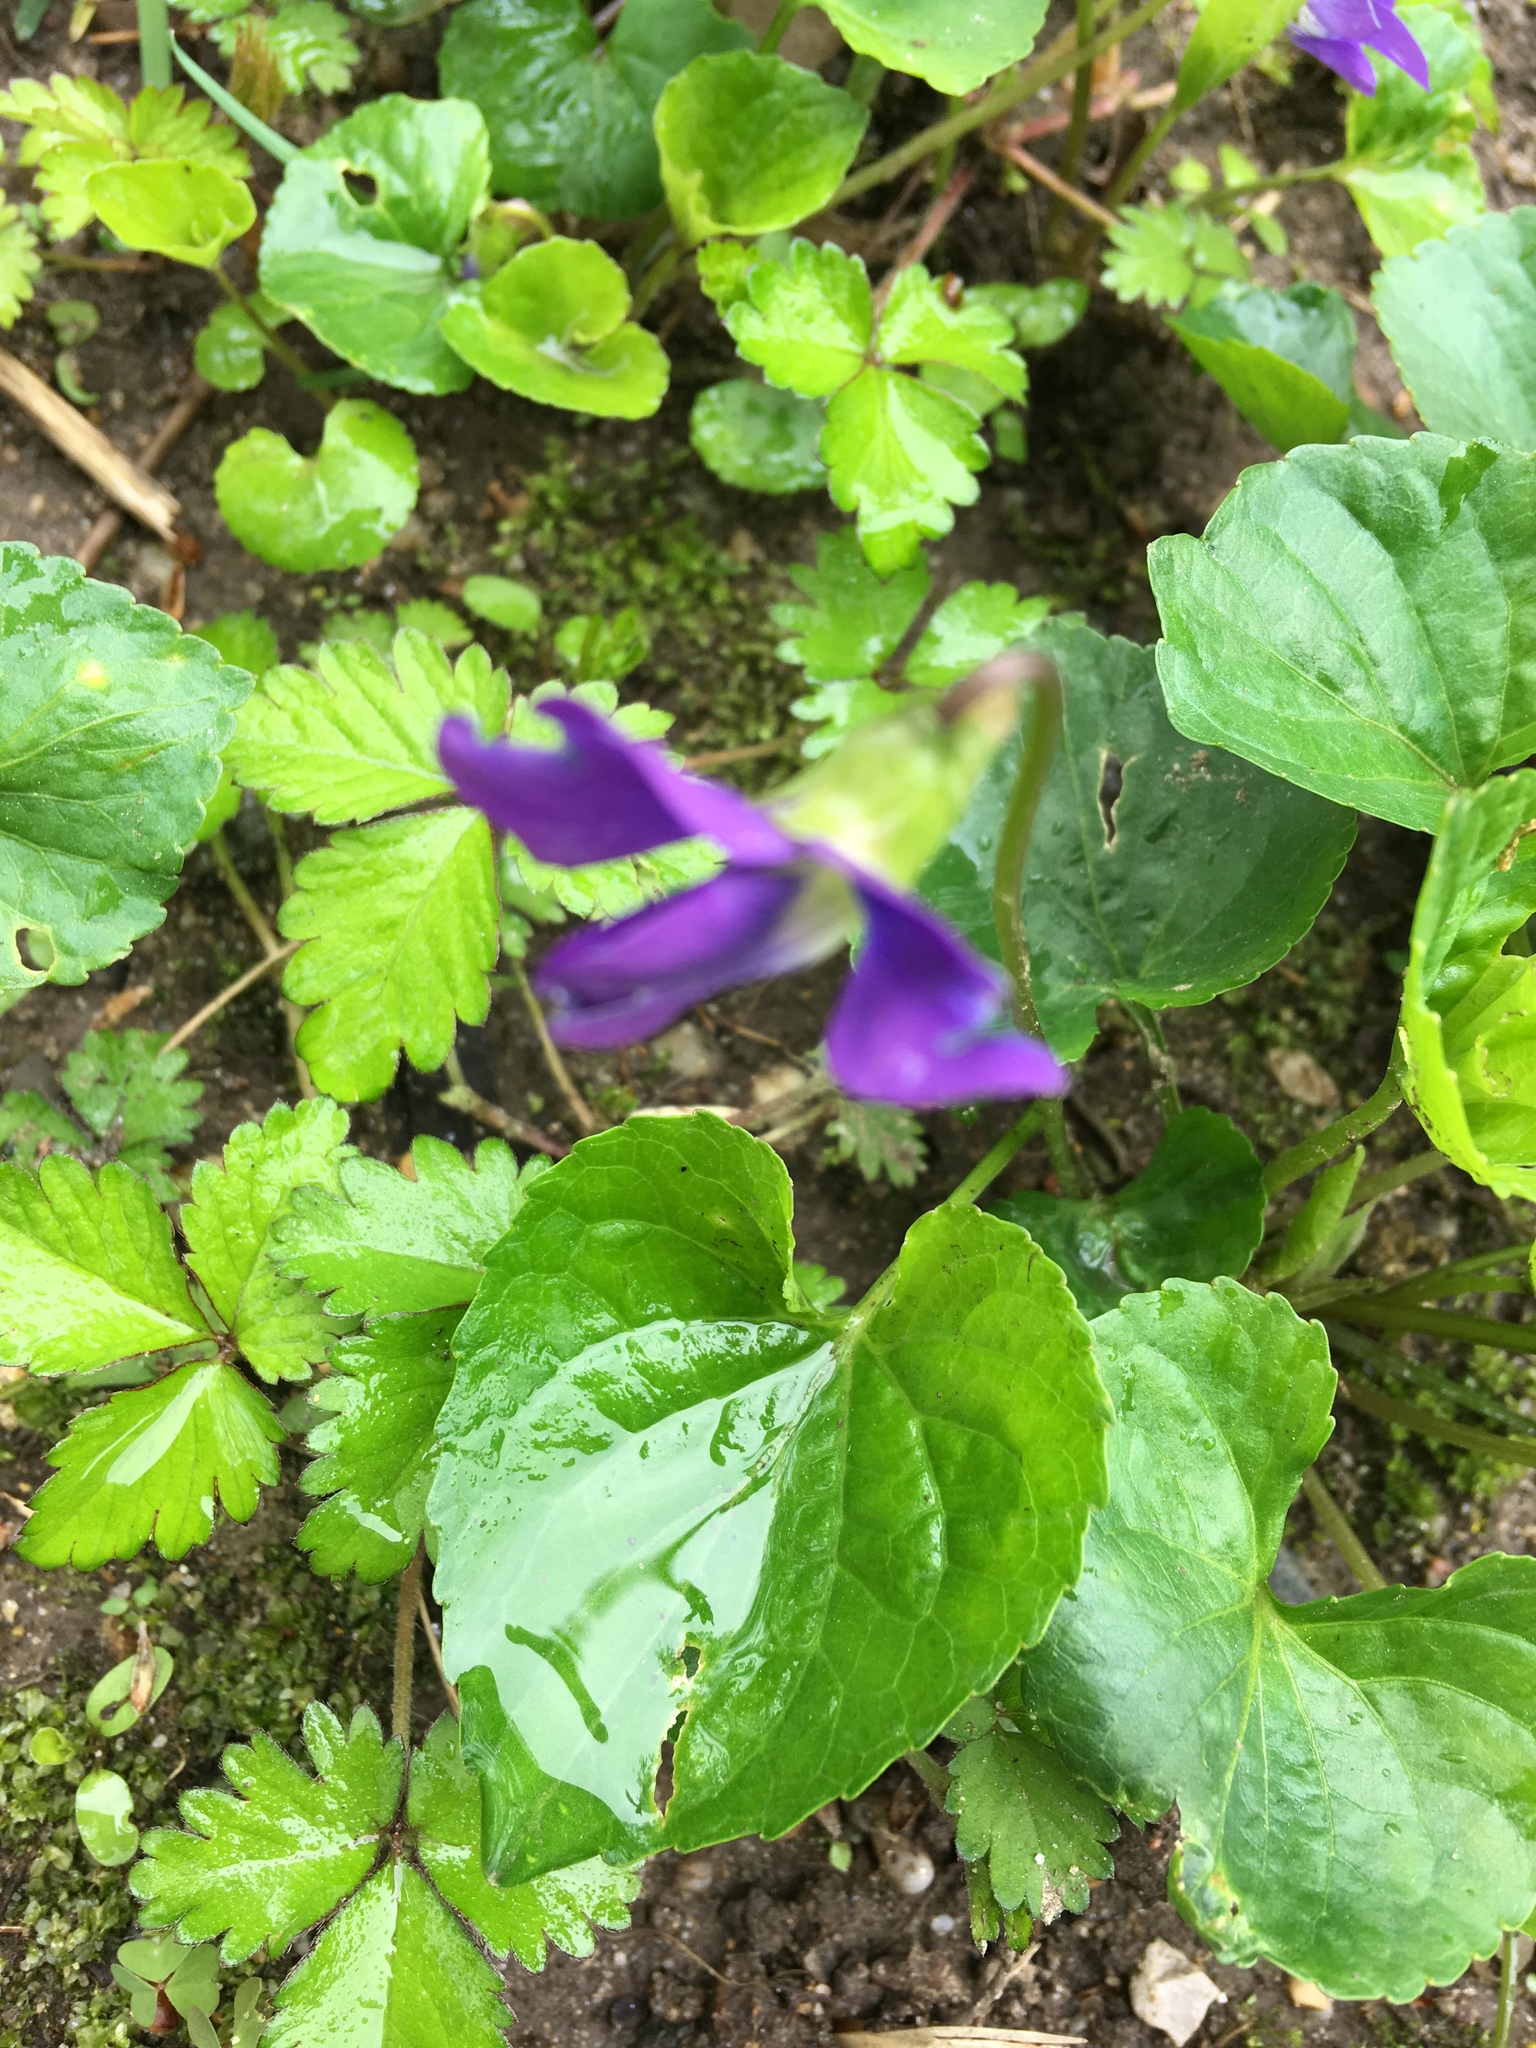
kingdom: Plantae
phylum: Tracheophyta
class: Magnoliopsida
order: Malpighiales
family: Violaceae
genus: Viola
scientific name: Viola sororia
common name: Dooryard violet
